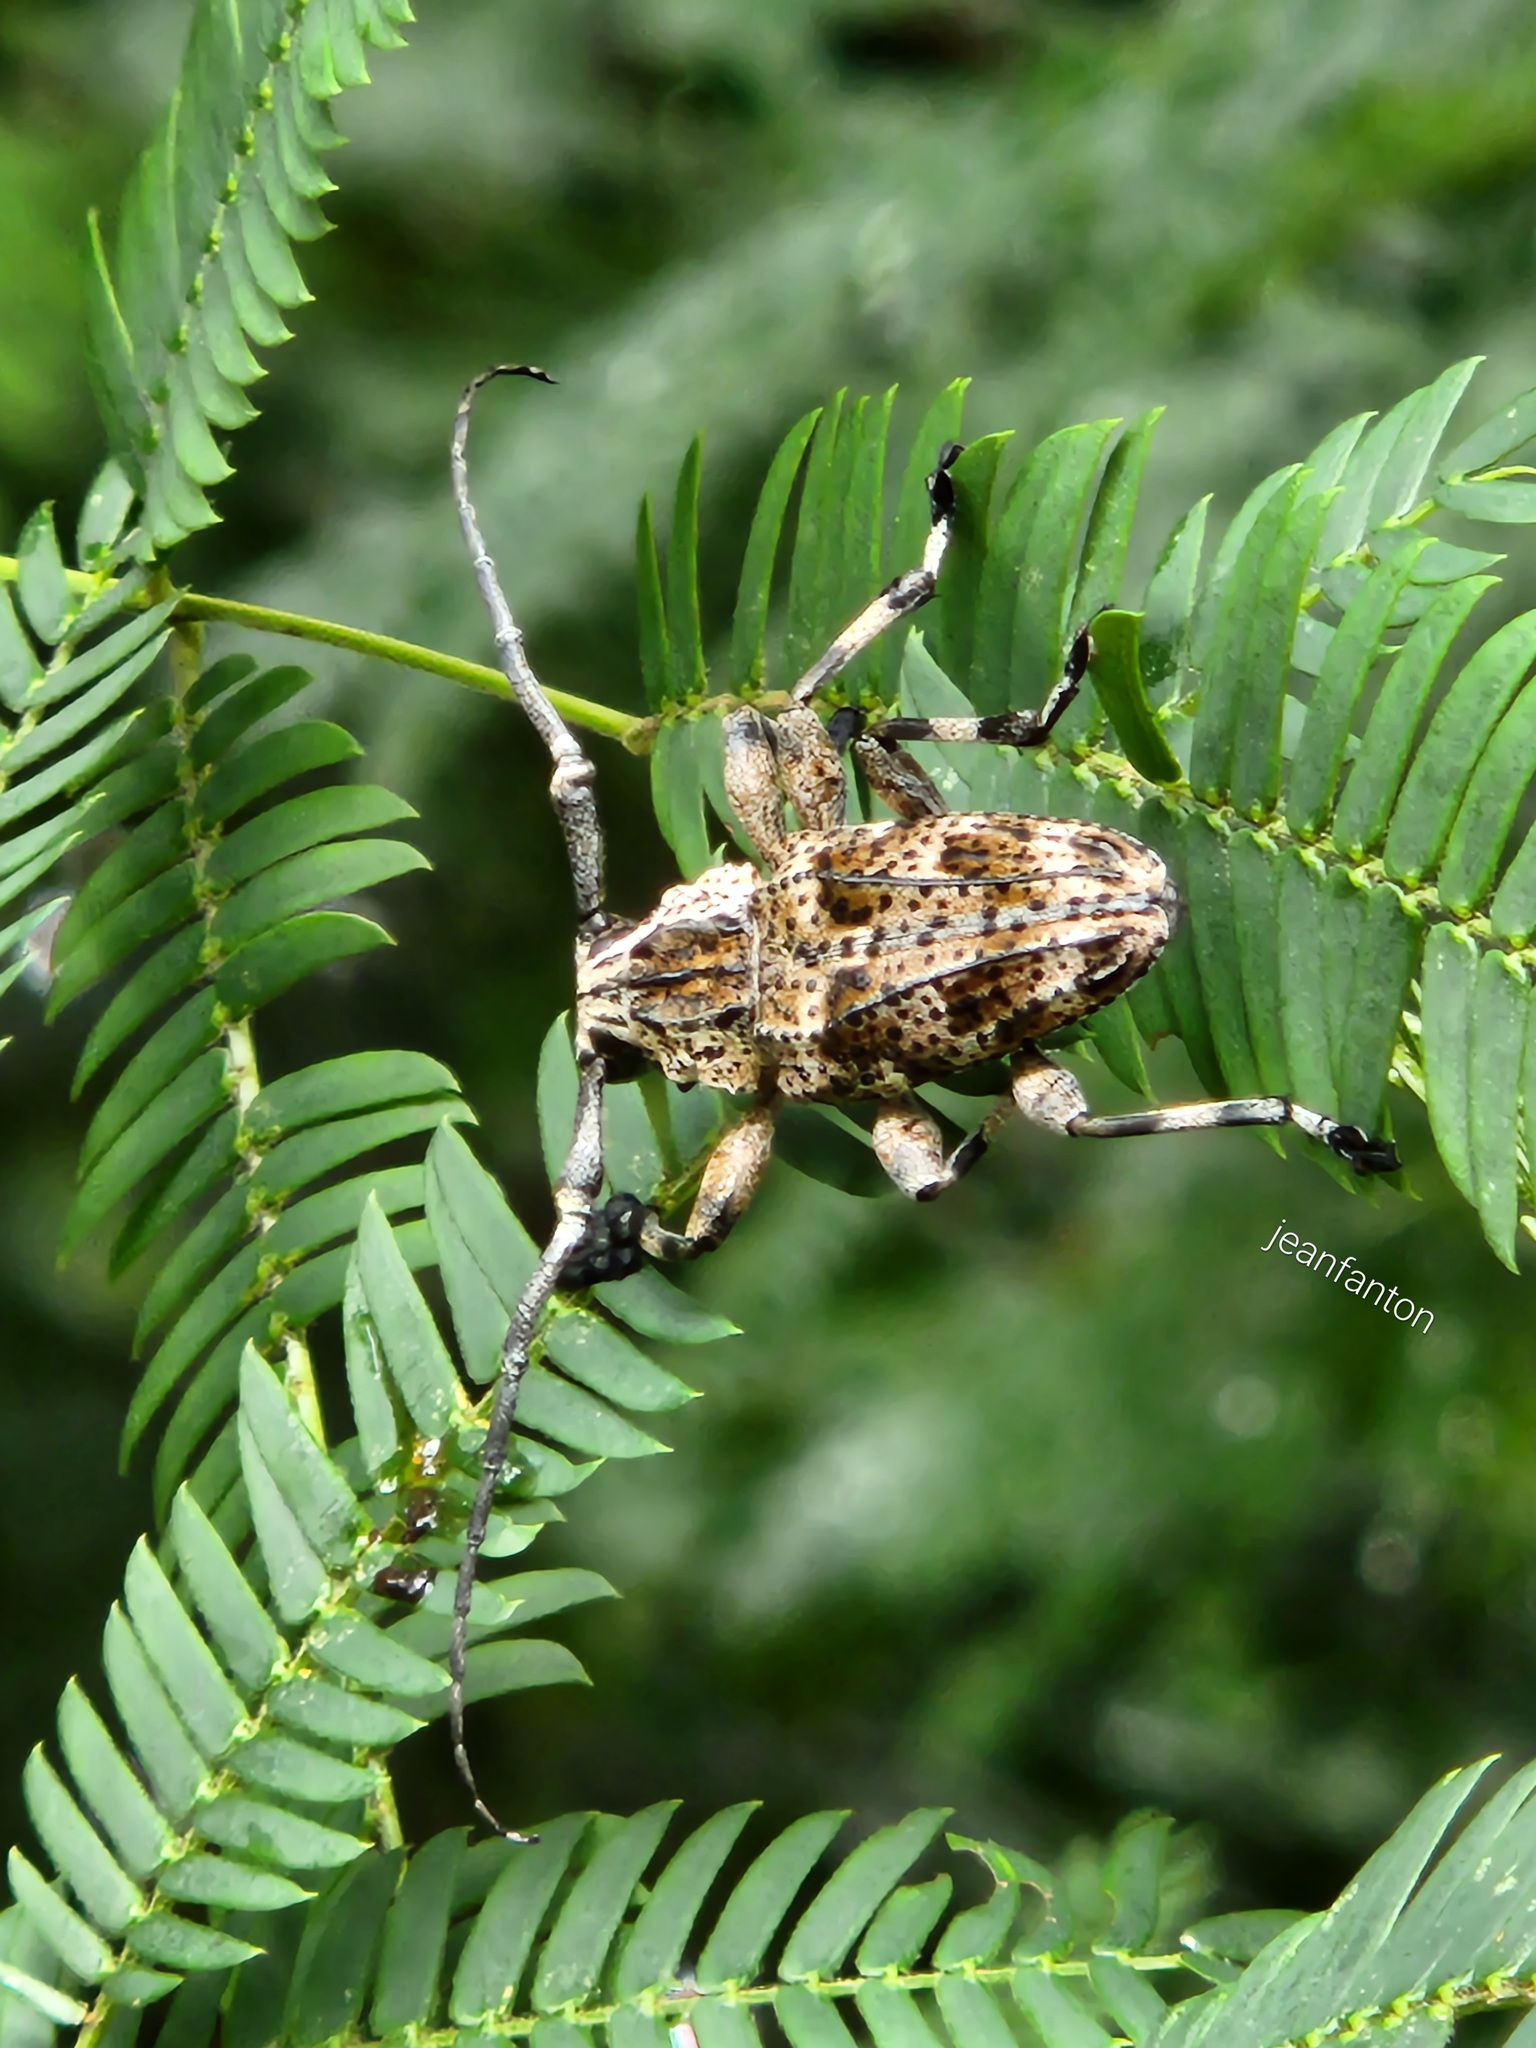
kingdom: Animalia
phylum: Arthropoda
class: Insecta
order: Coleoptera
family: Cerambycidae
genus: Steirastoma
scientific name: Steirastoma meridionale
